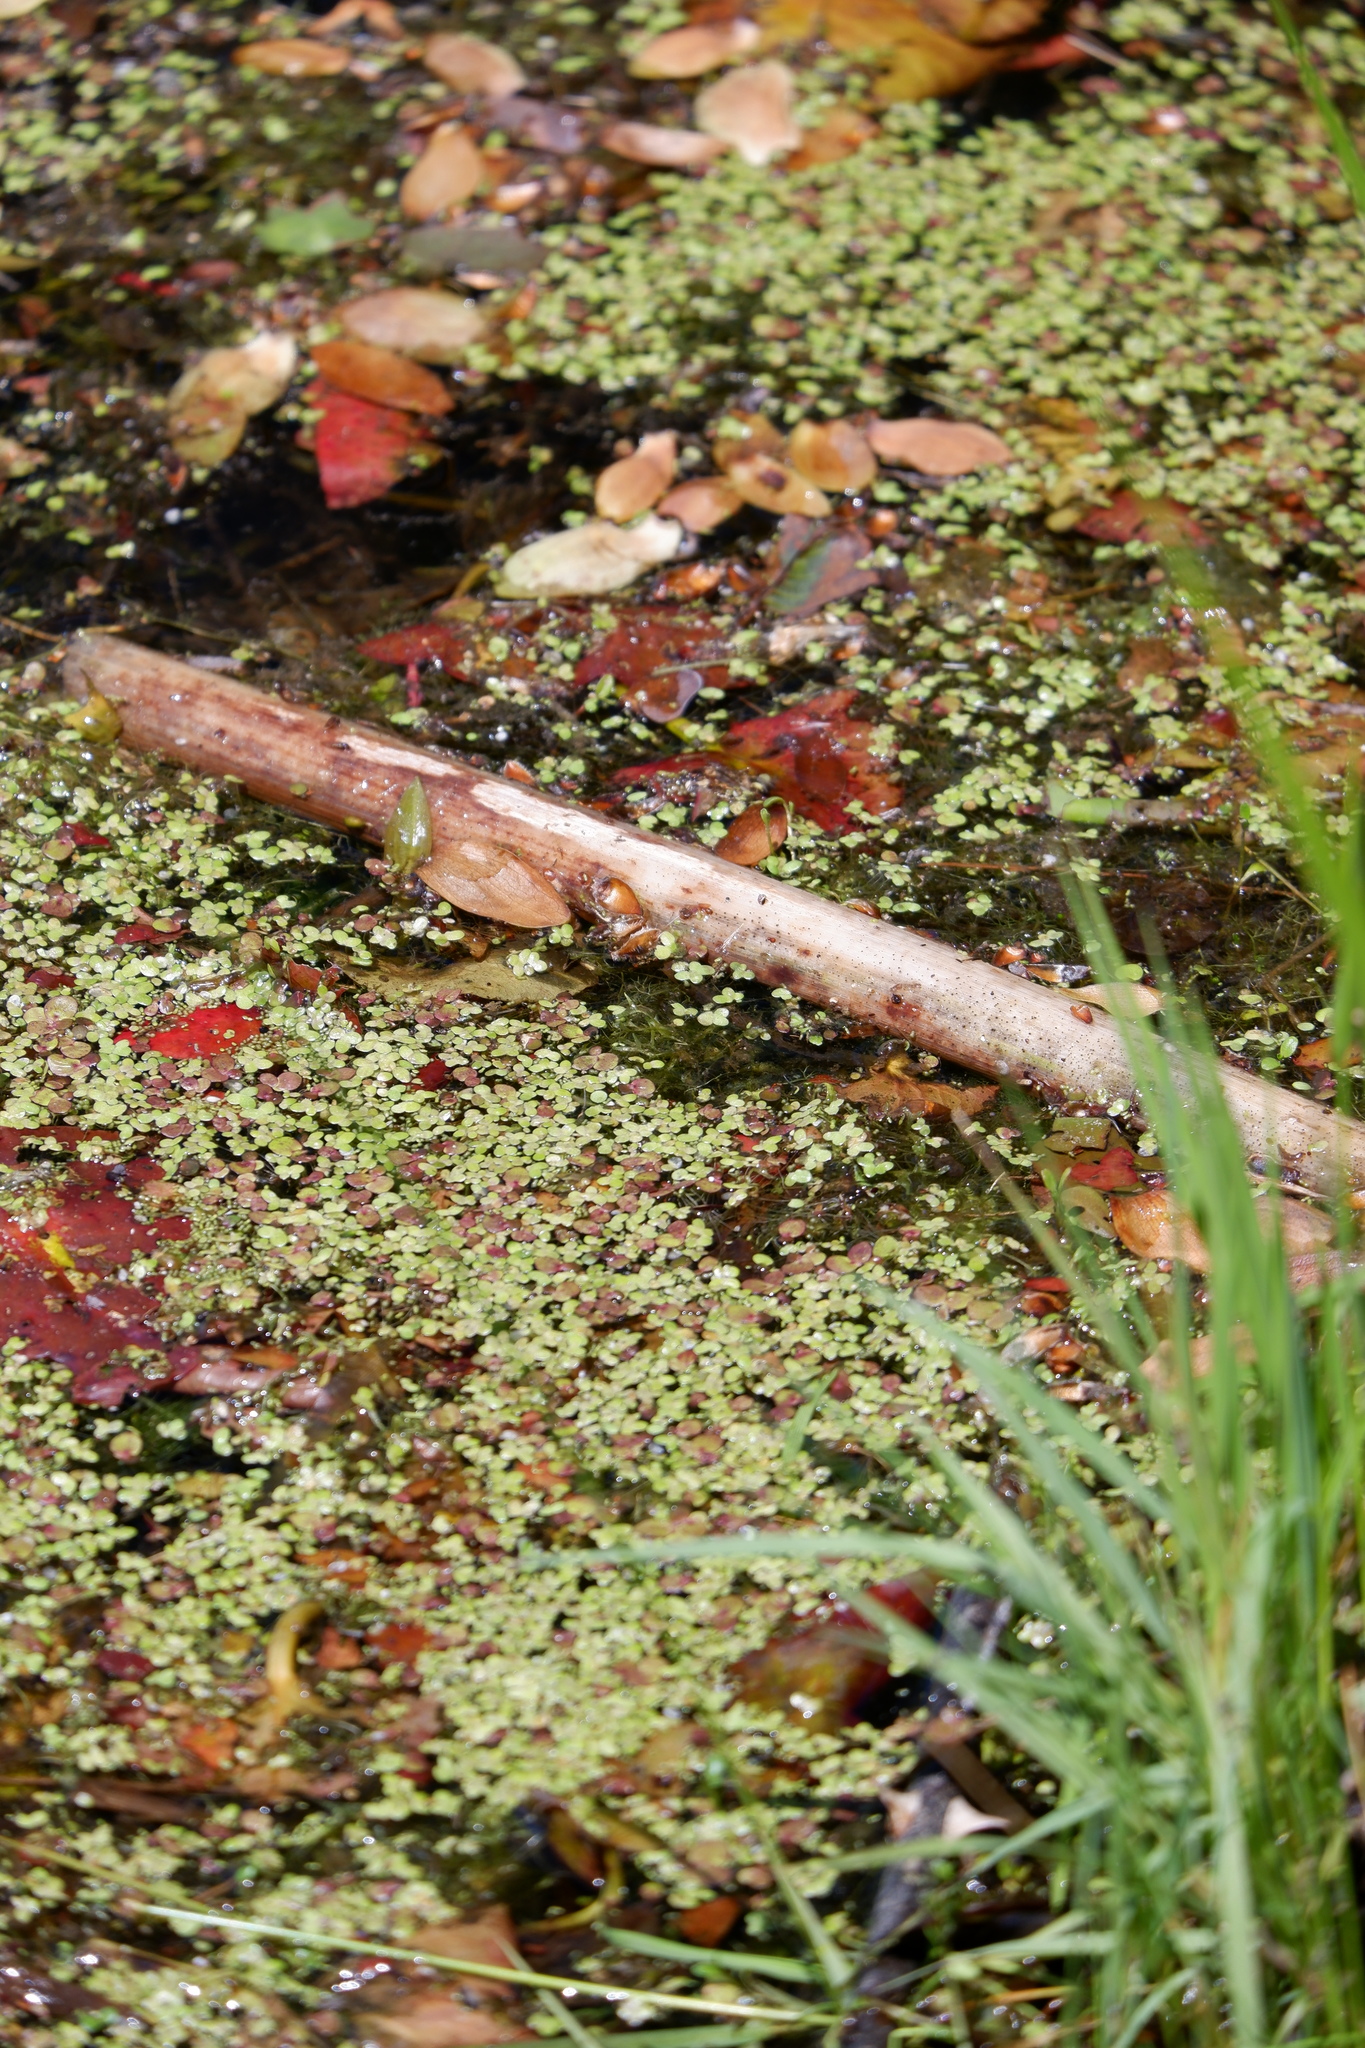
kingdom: Plantae
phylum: Marchantiophyta
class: Marchantiopsida
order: Marchantiales
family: Ricciaceae
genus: Riccia
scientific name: Riccia fluitans
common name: Floating crystalwort
